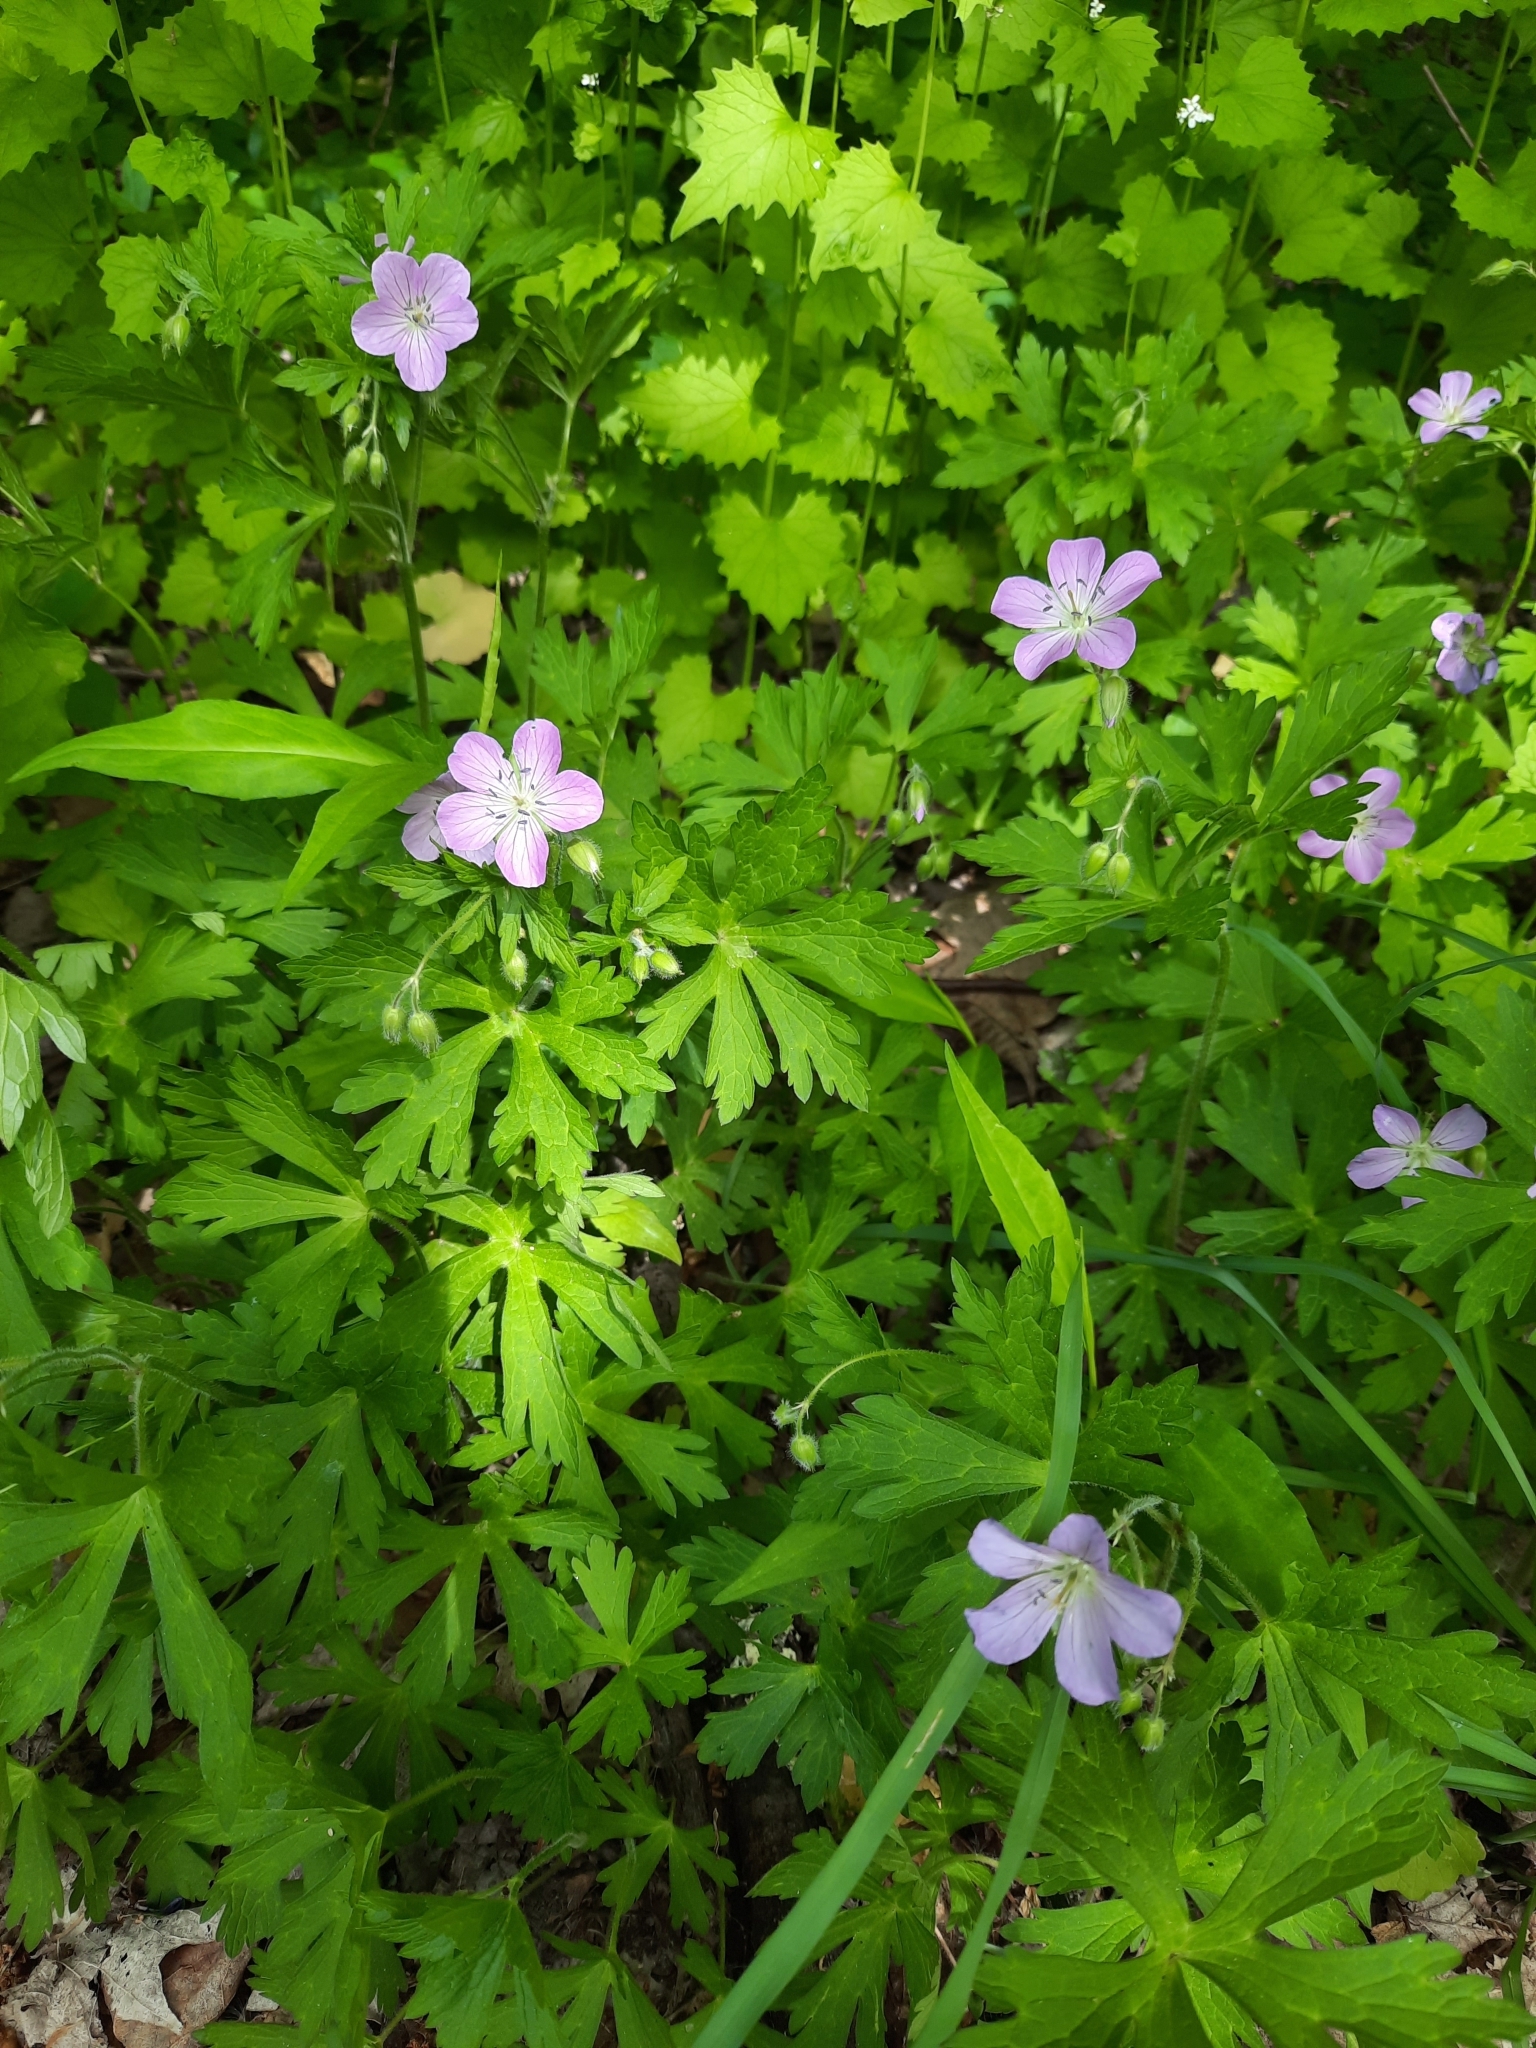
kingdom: Plantae
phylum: Tracheophyta
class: Magnoliopsida
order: Geraniales
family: Geraniaceae
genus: Geranium
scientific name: Geranium maculatum
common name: Spotted geranium
